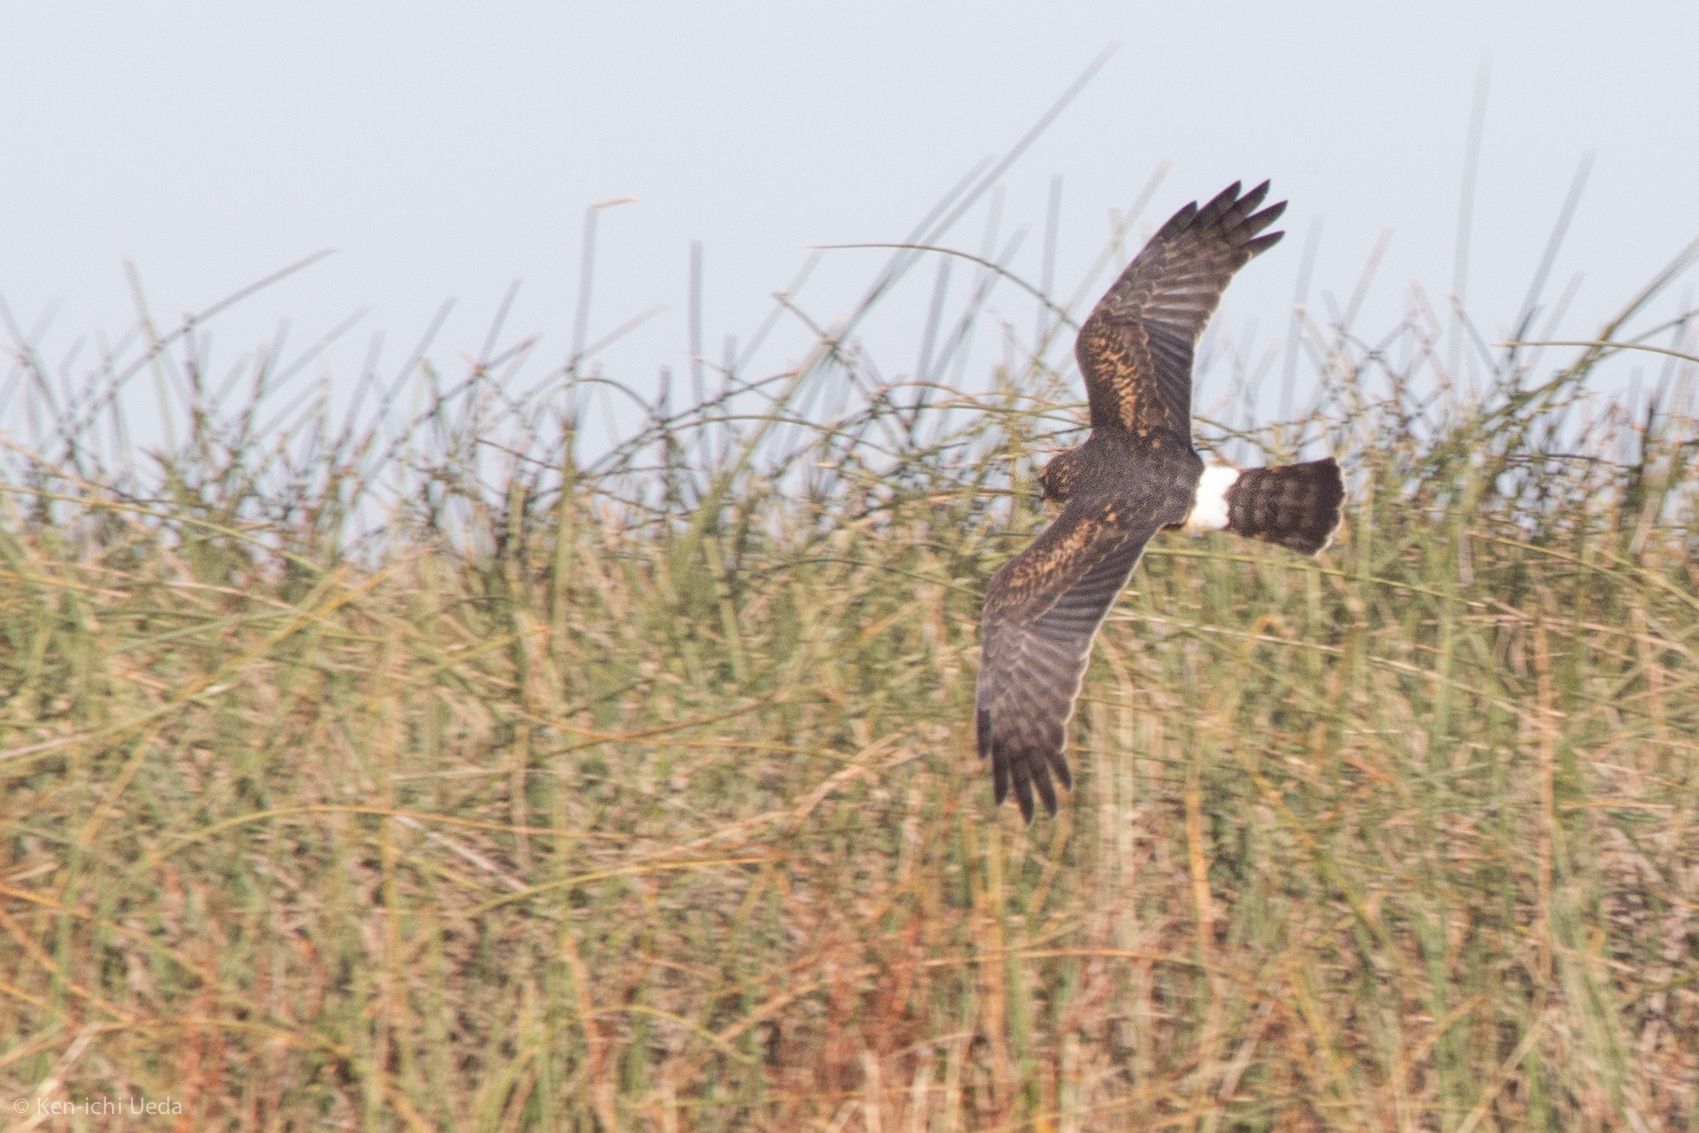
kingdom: Animalia
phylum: Chordata
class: Aves
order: Accipitriformes
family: Accipitridae
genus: Circus
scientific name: Circus cyaneus
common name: Hen harrier
